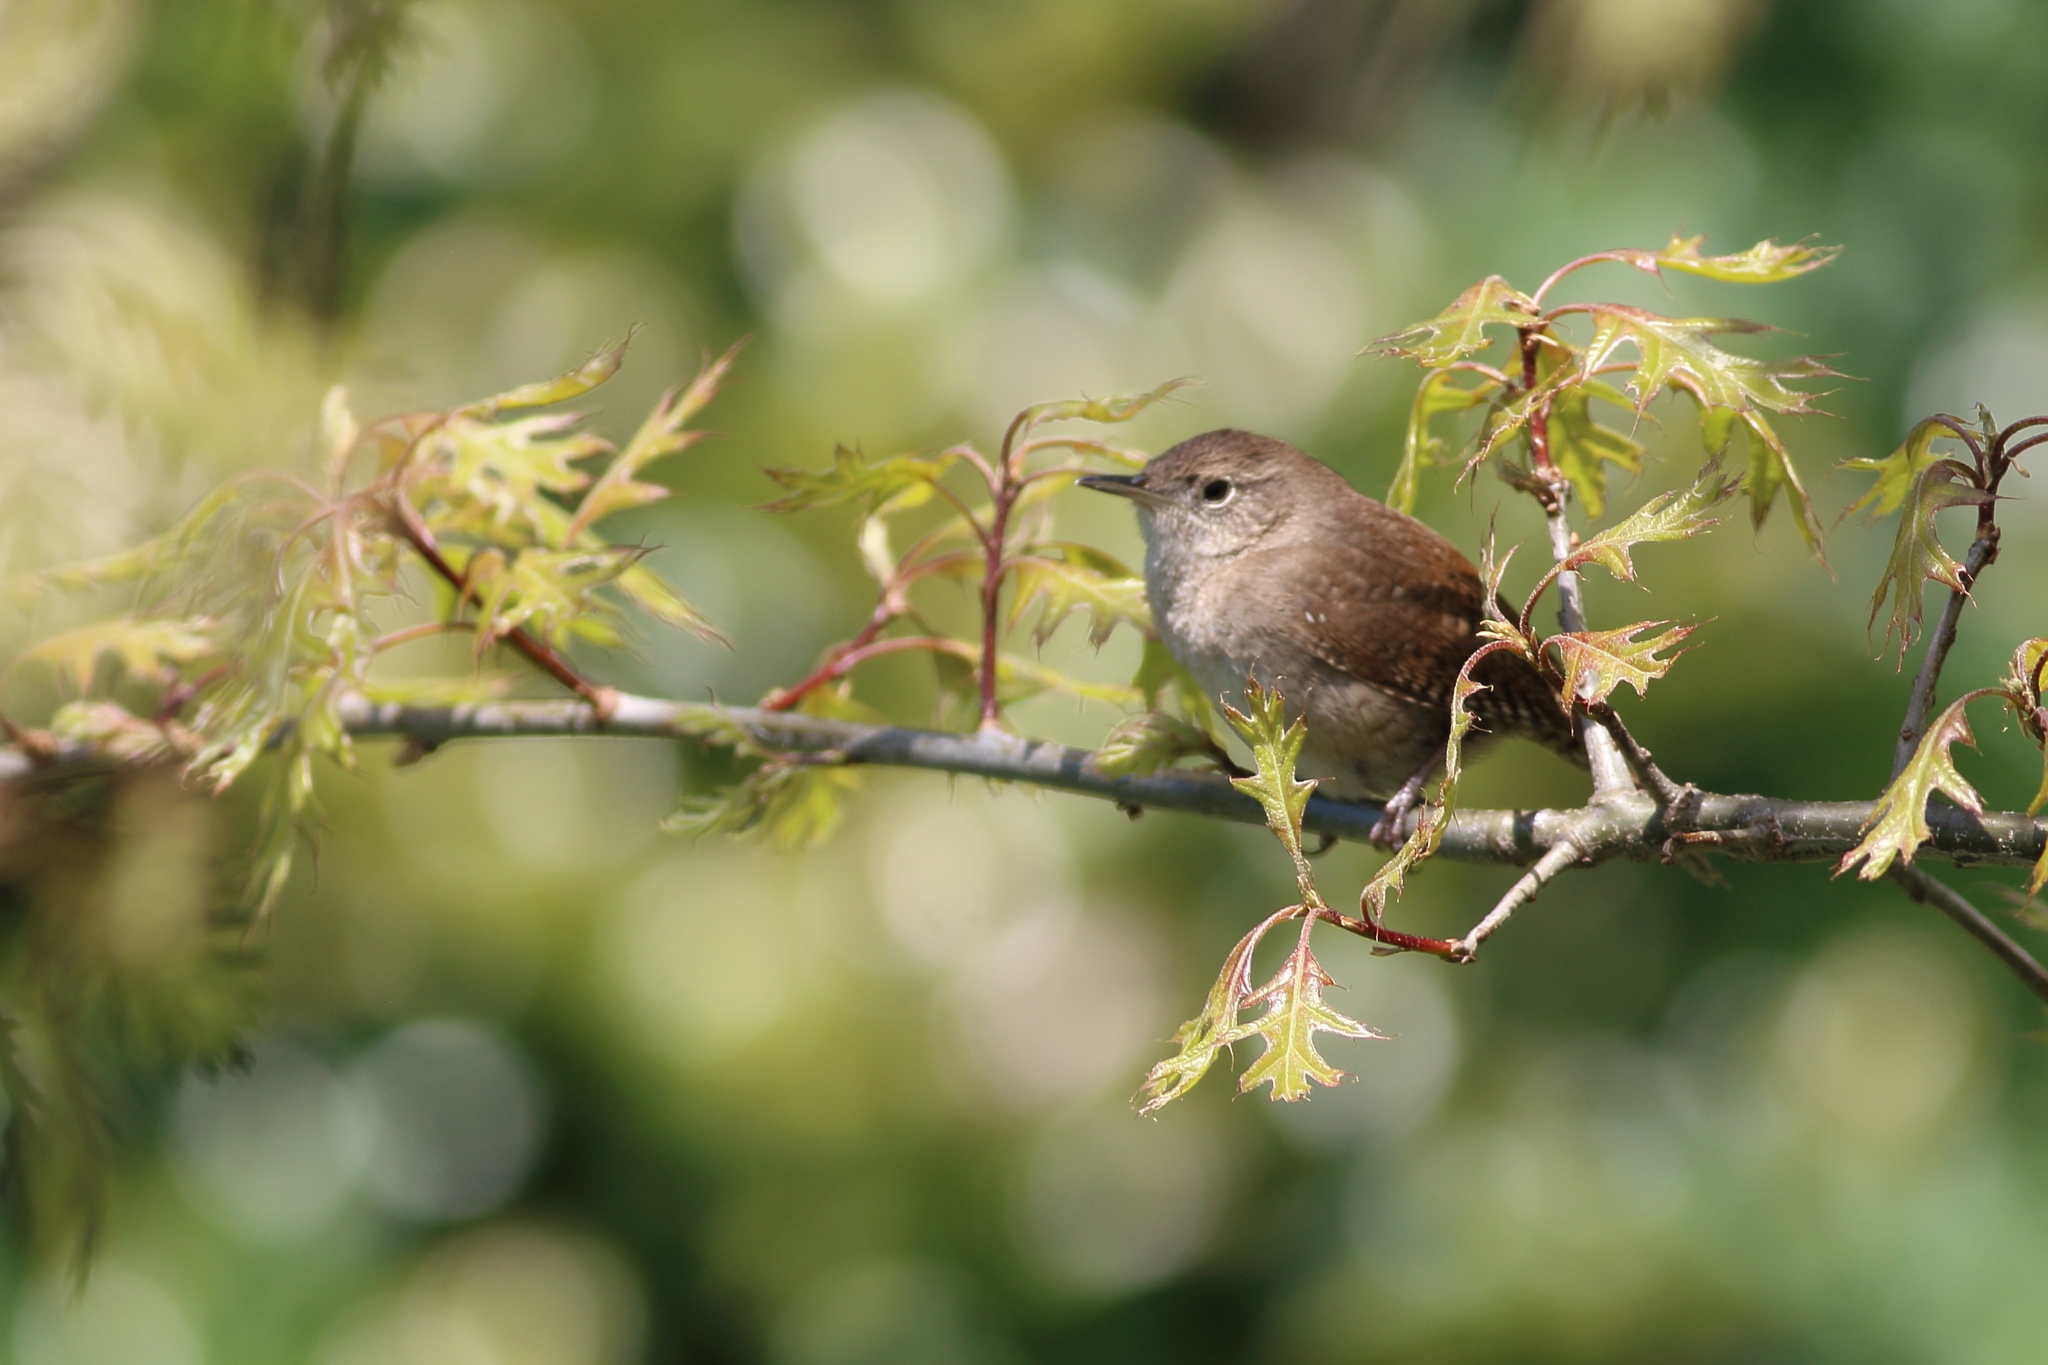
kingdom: Animalia
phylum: Chordata
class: Aves
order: Passeriformes
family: Troglodytidae
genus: Troglodytes
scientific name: Troglodytes aedon
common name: House wren
